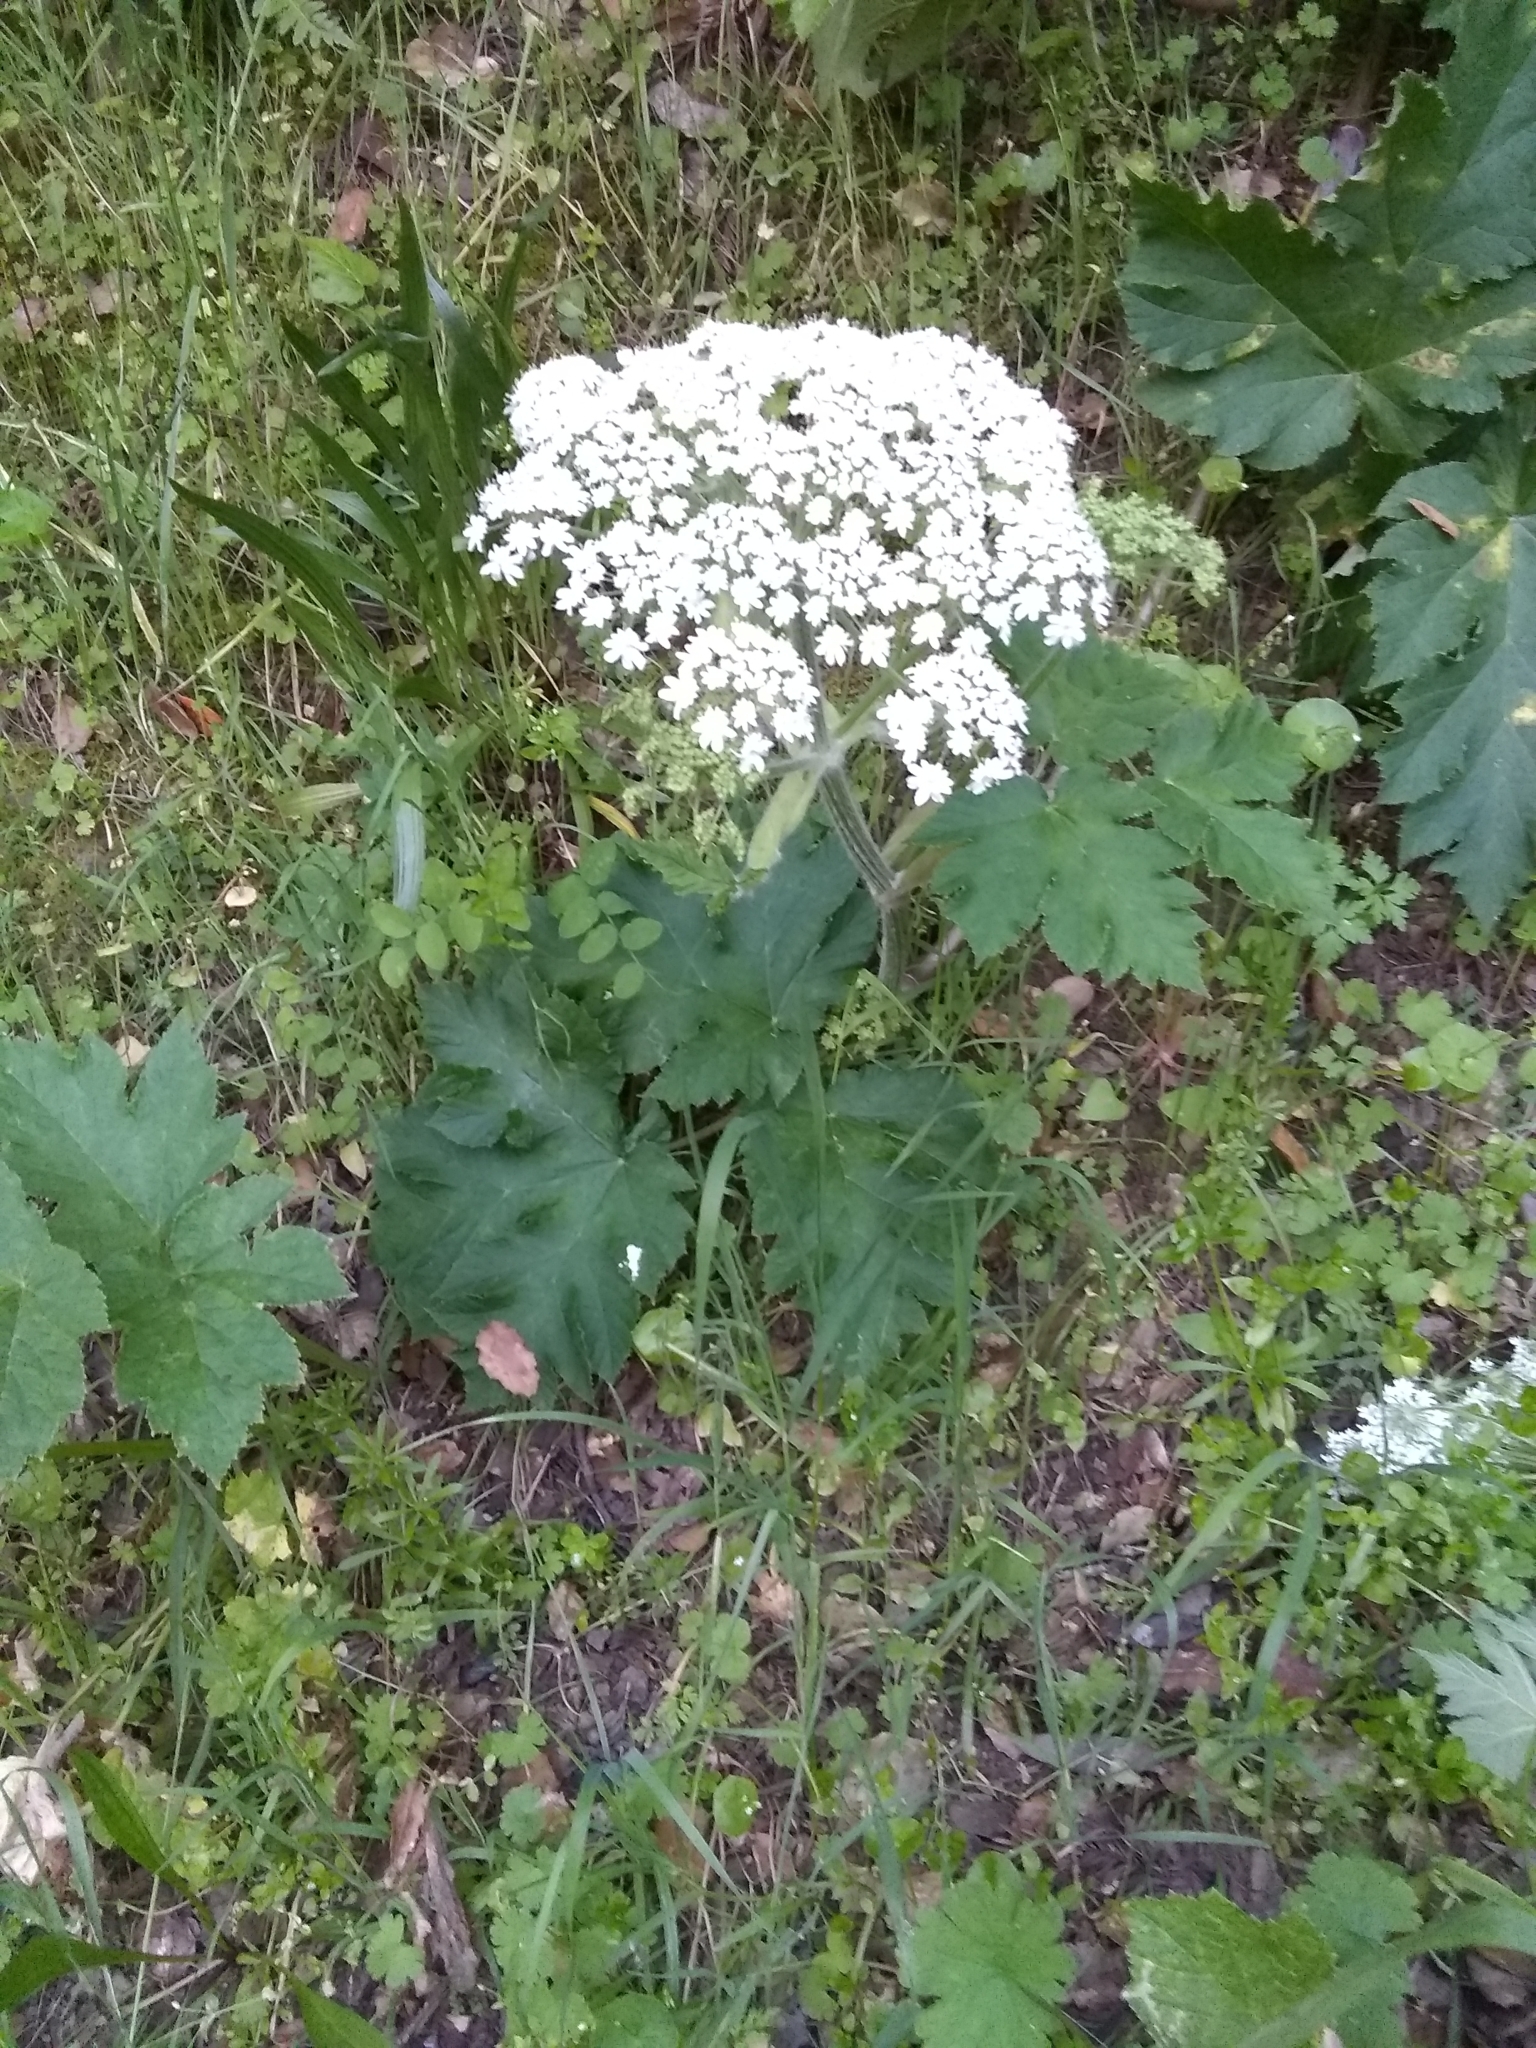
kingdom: Plantae
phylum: Tracheophyta
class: Magnoliopsida
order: Apiales
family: Apiaceae
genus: Heracleum
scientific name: Heracleum maximum
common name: American cow parsnip
